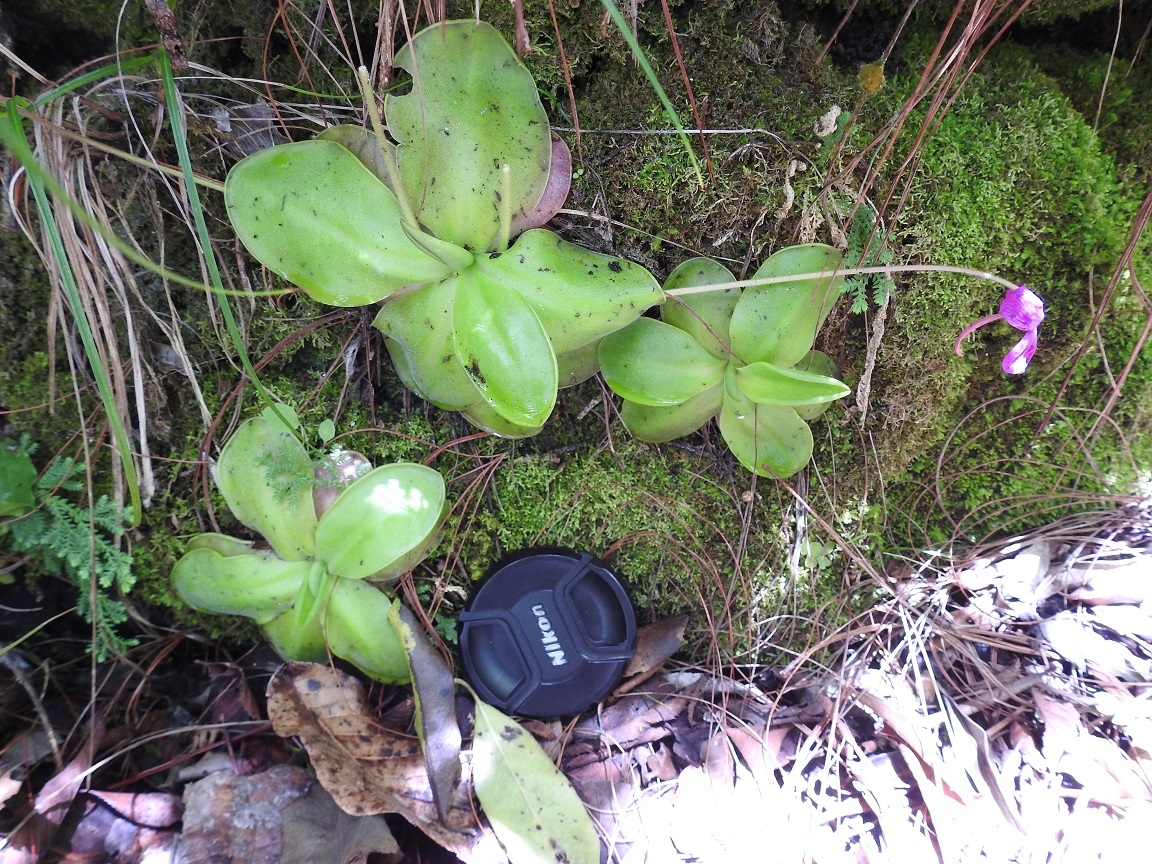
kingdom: Plantae
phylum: Tracheophyta
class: Magnoliopsida
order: Lamiales
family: Lentibulariaceae
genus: Pinguicula
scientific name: Pinguicula moranensis
